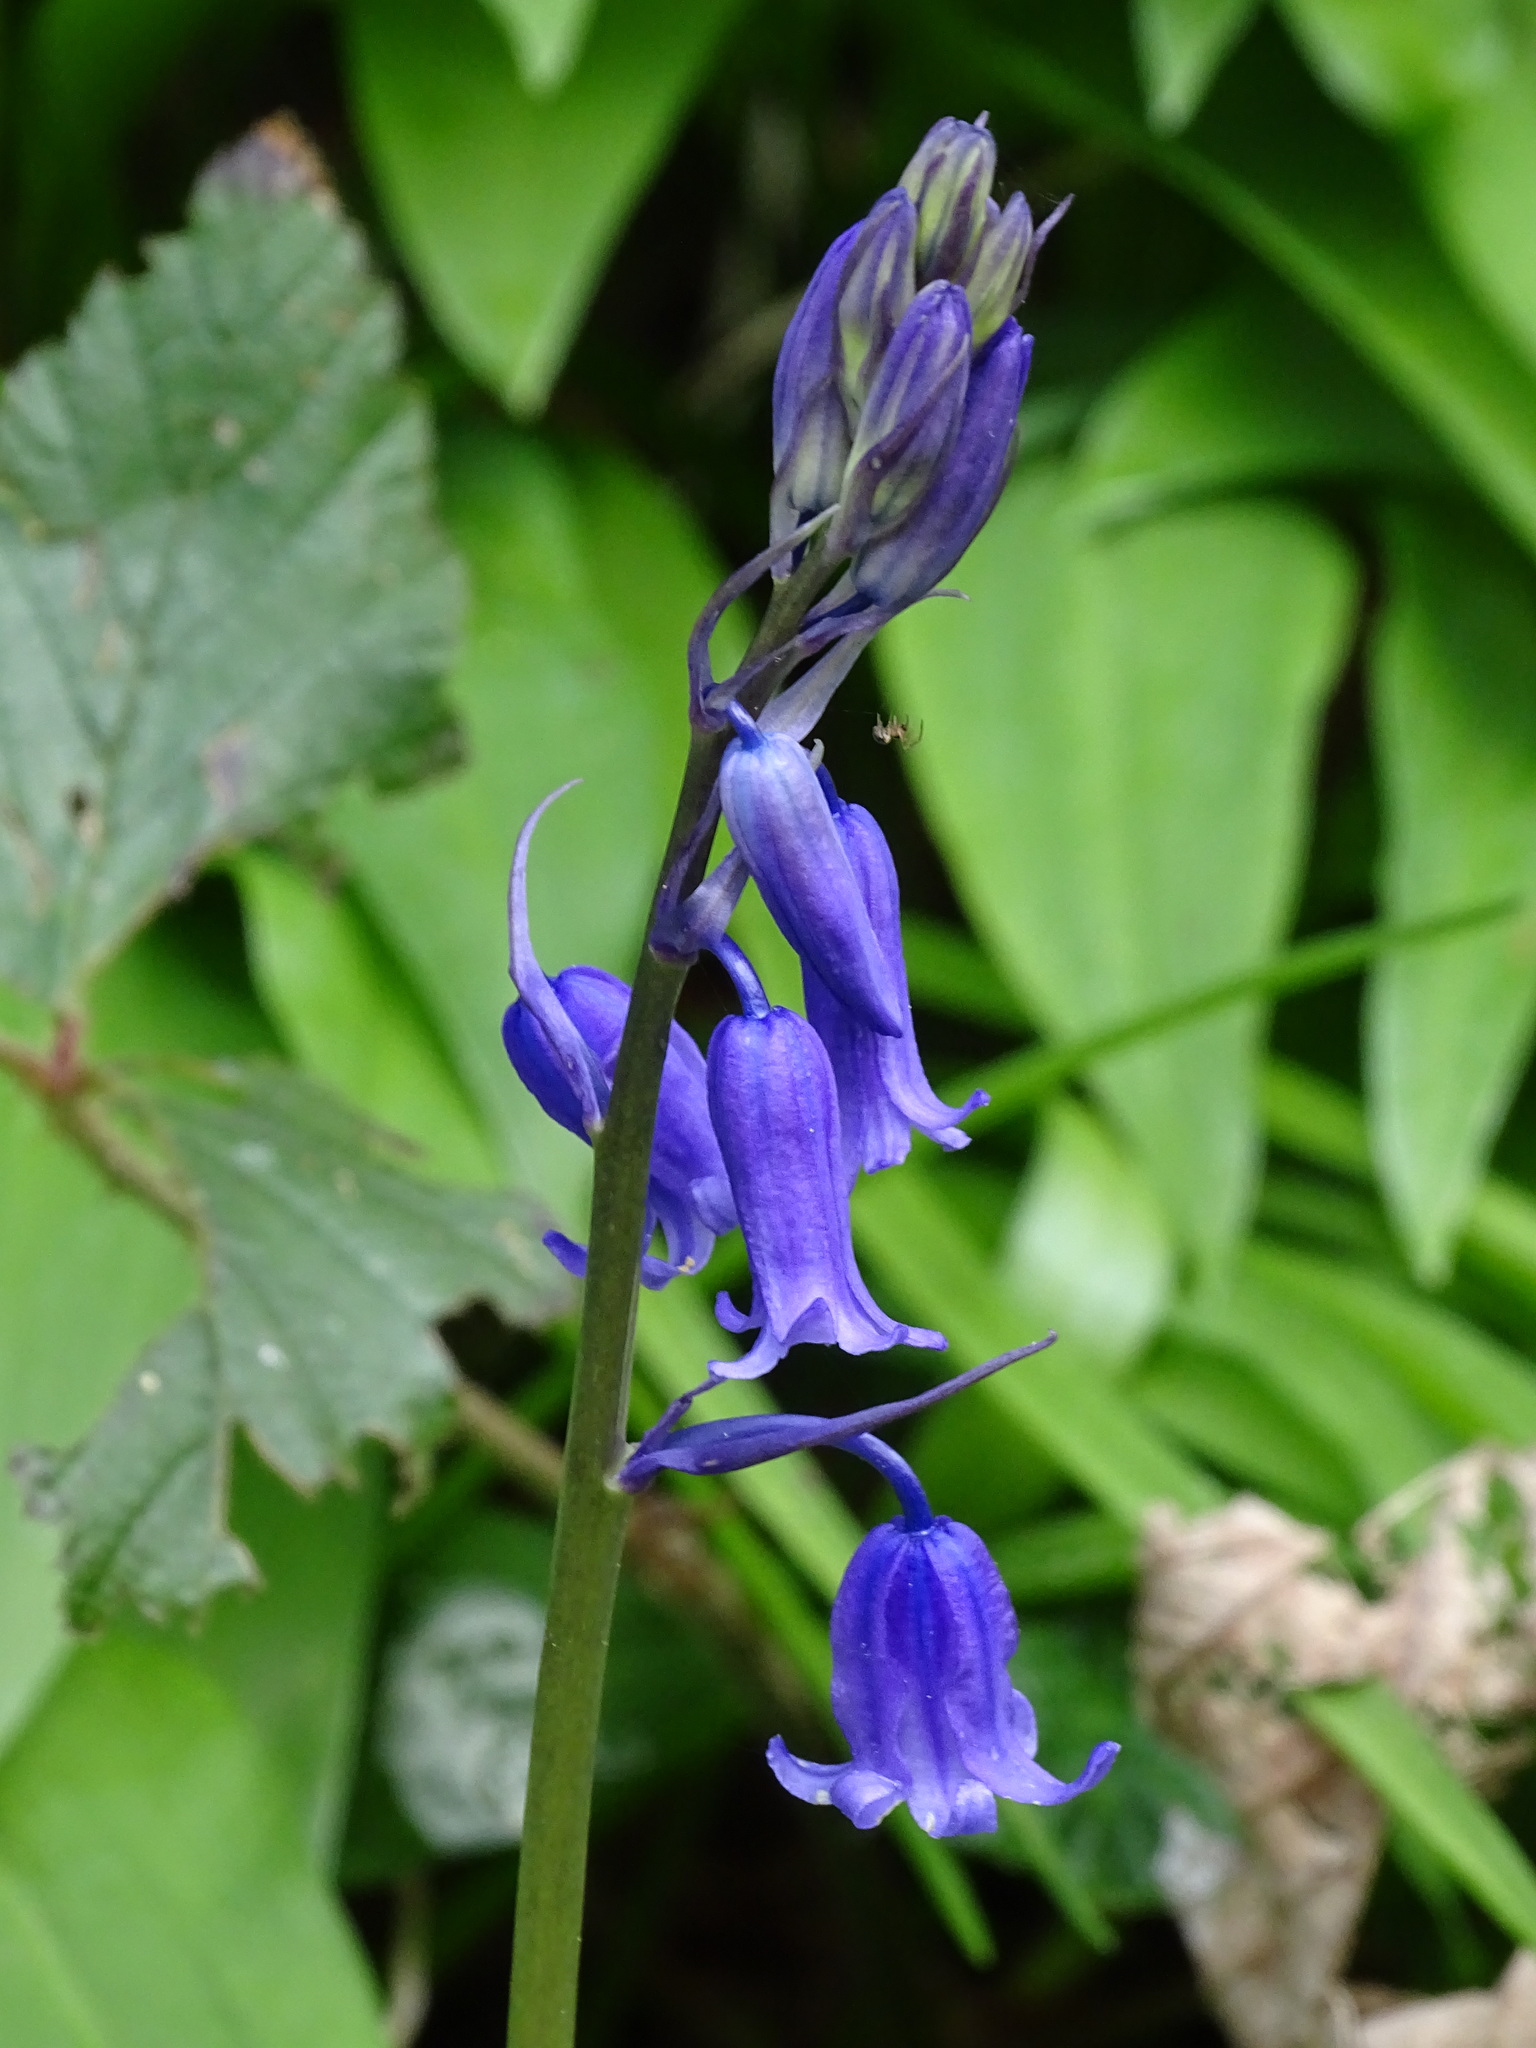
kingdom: Plantae
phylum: Tracheophyta
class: Liliopsida
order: Asparagales
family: Asparagaceae
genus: Hyacinthoides
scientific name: Hyacinthoides non-scripta
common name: Bluebell
